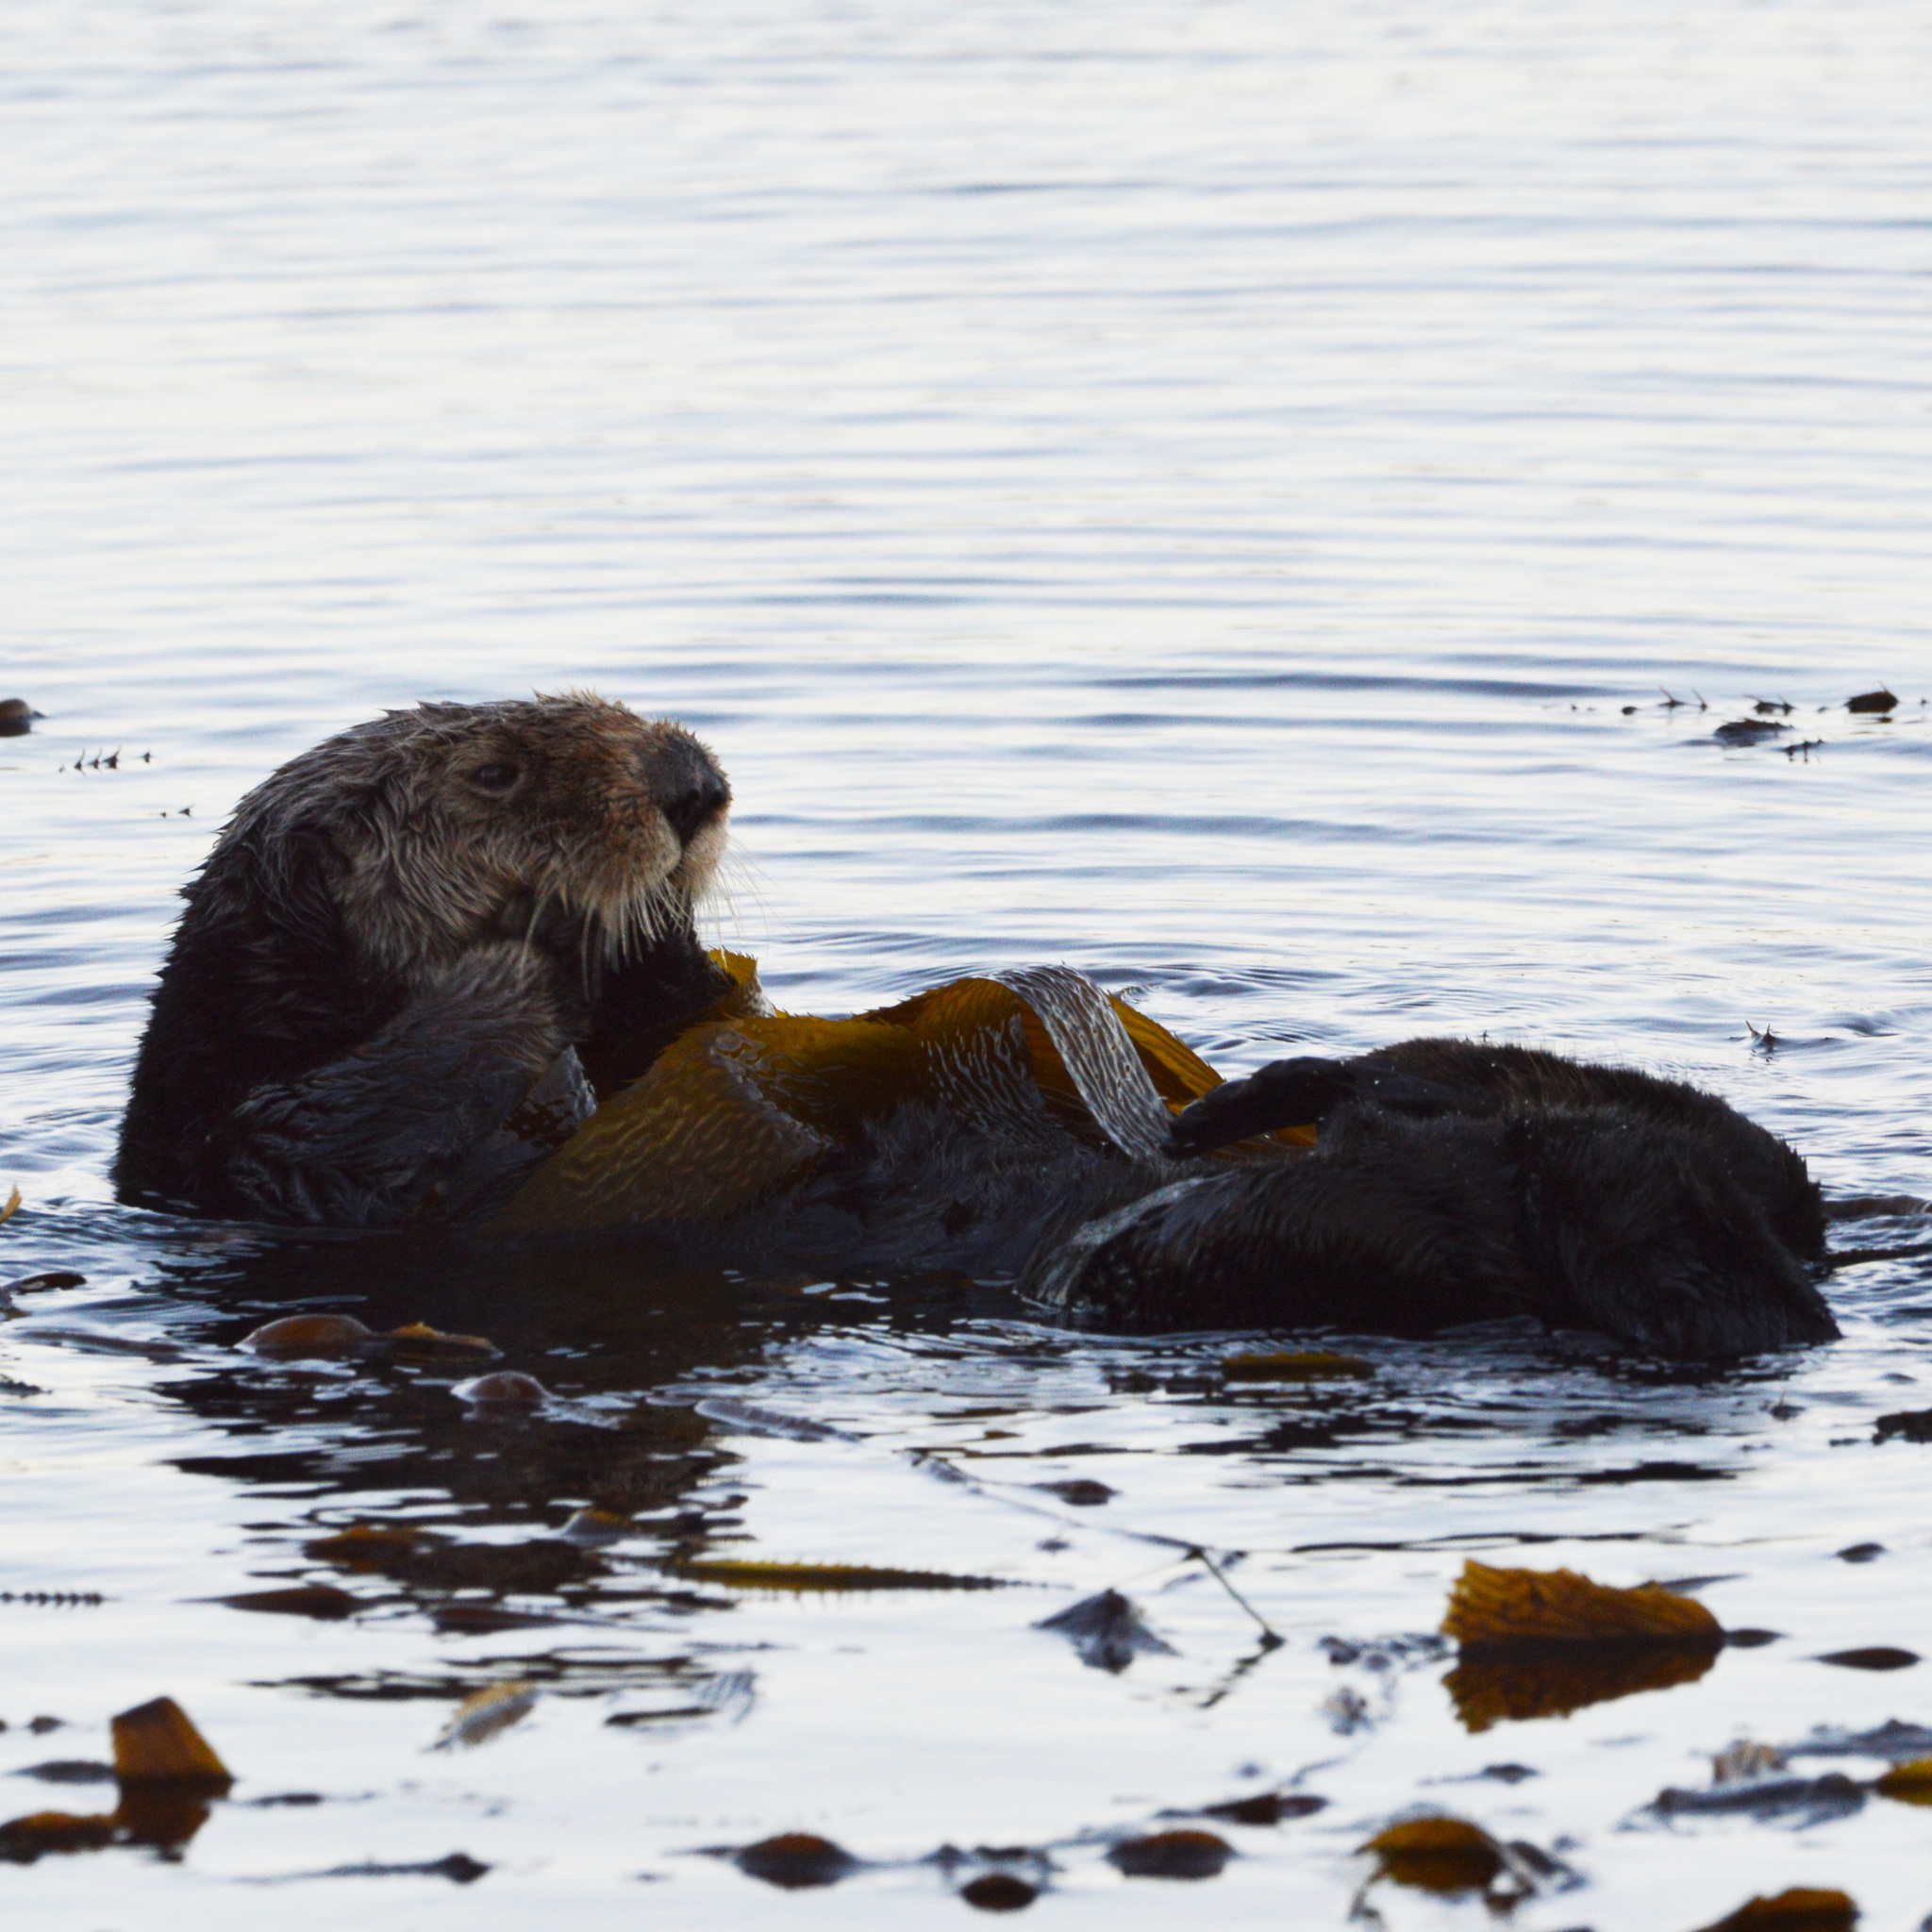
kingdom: Animalia
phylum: Chordata
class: Mammalia
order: Carnivora
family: Mustelidae
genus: Enhydra
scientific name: Enhydra lutris
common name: Sea otter
